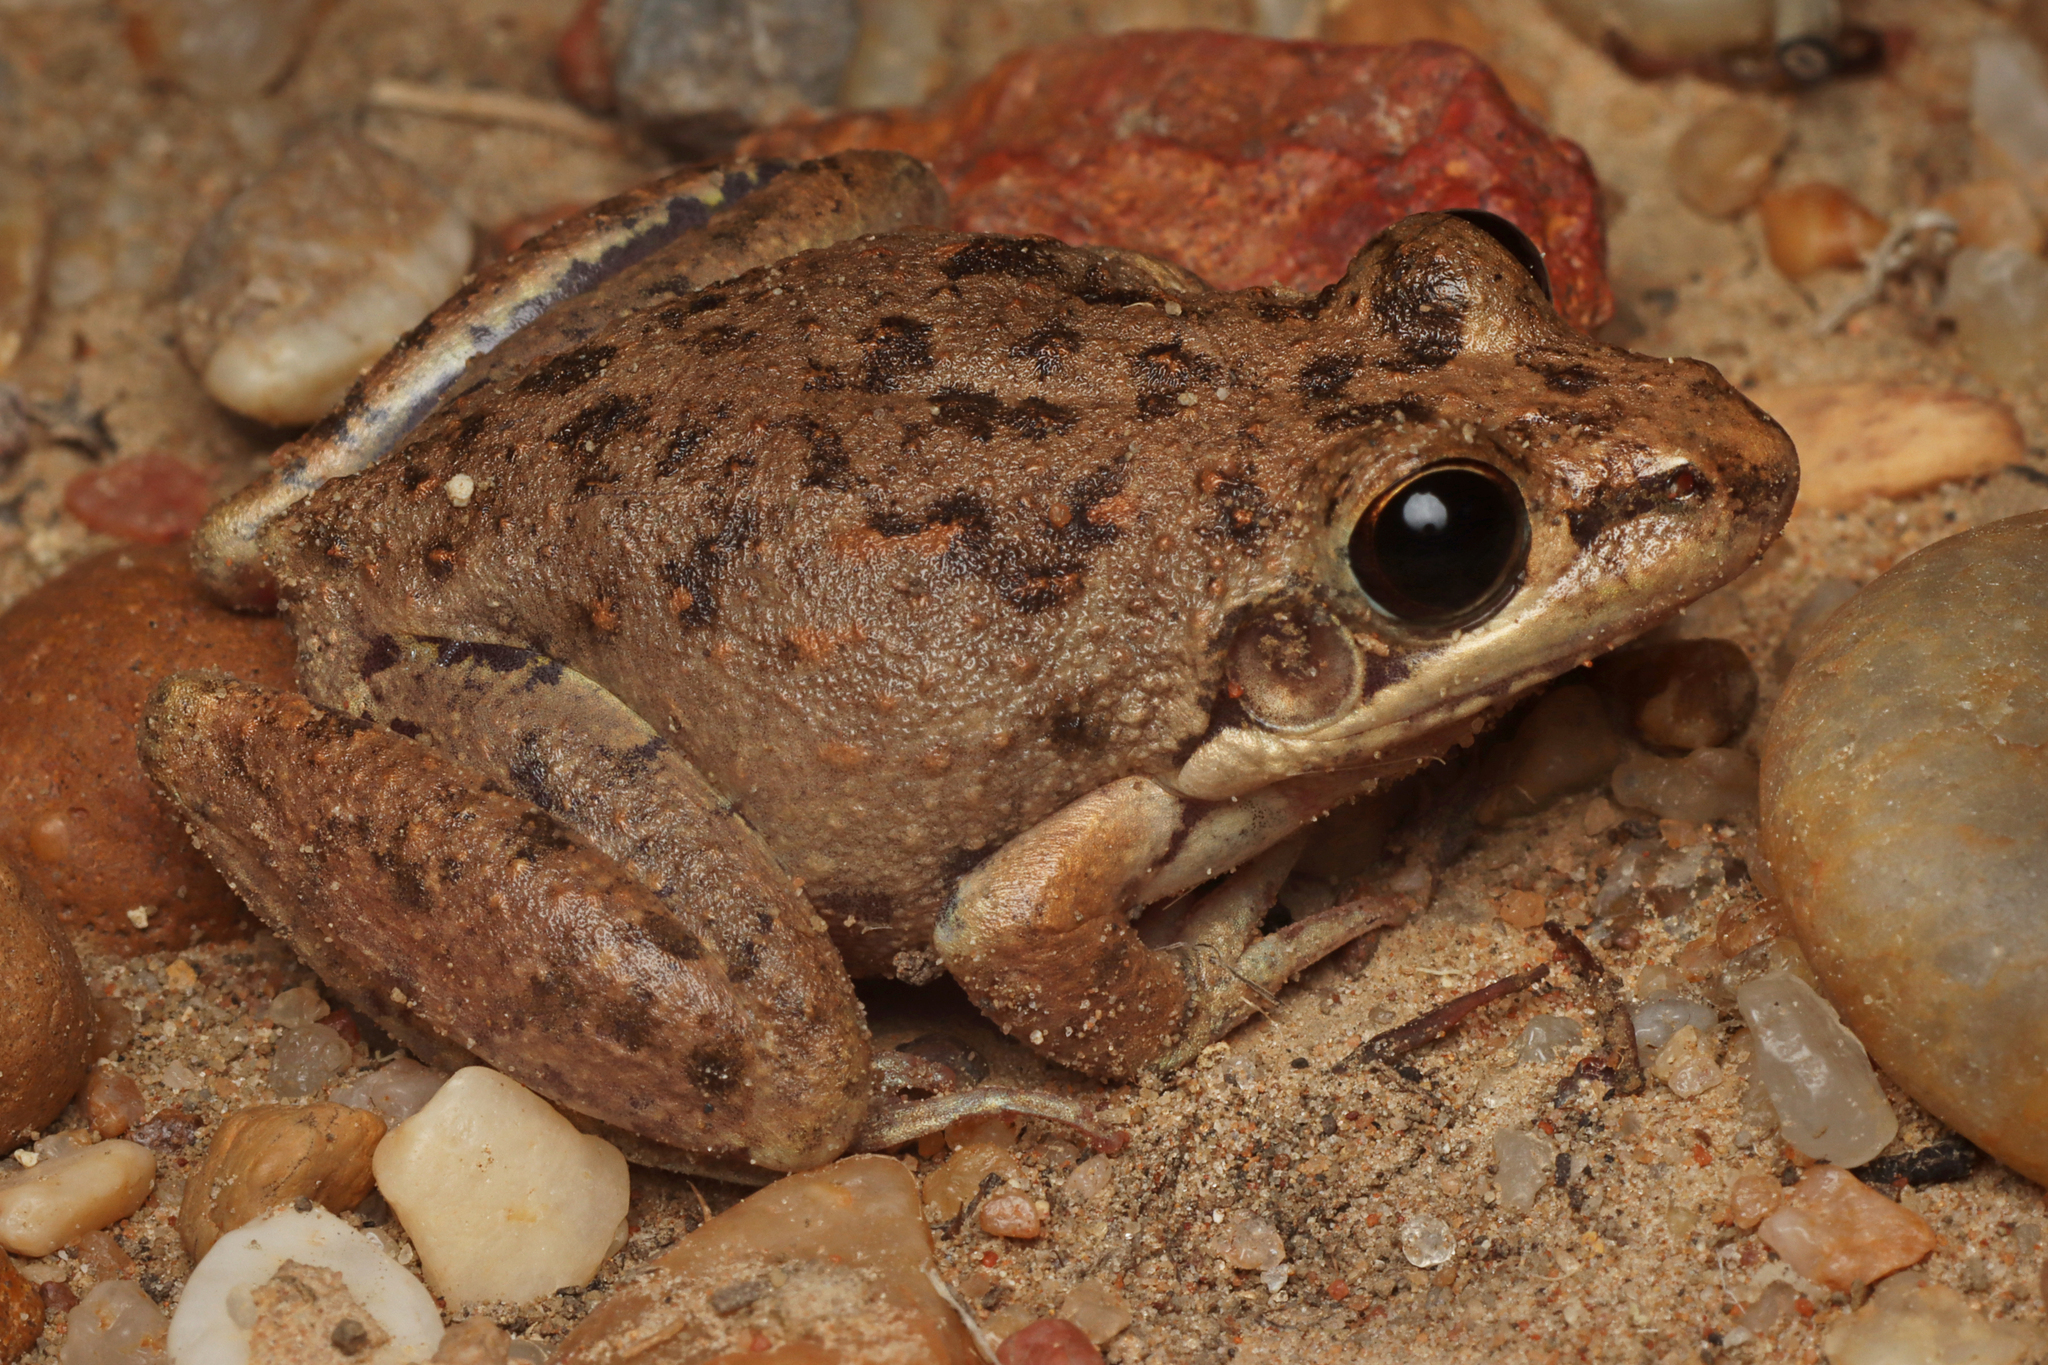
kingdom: Animalia
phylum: Chordata
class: Amphibia
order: Anura
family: Pelodryadidae
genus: Litoria
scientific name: Litoria inermis
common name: Bumpy rocket frog
